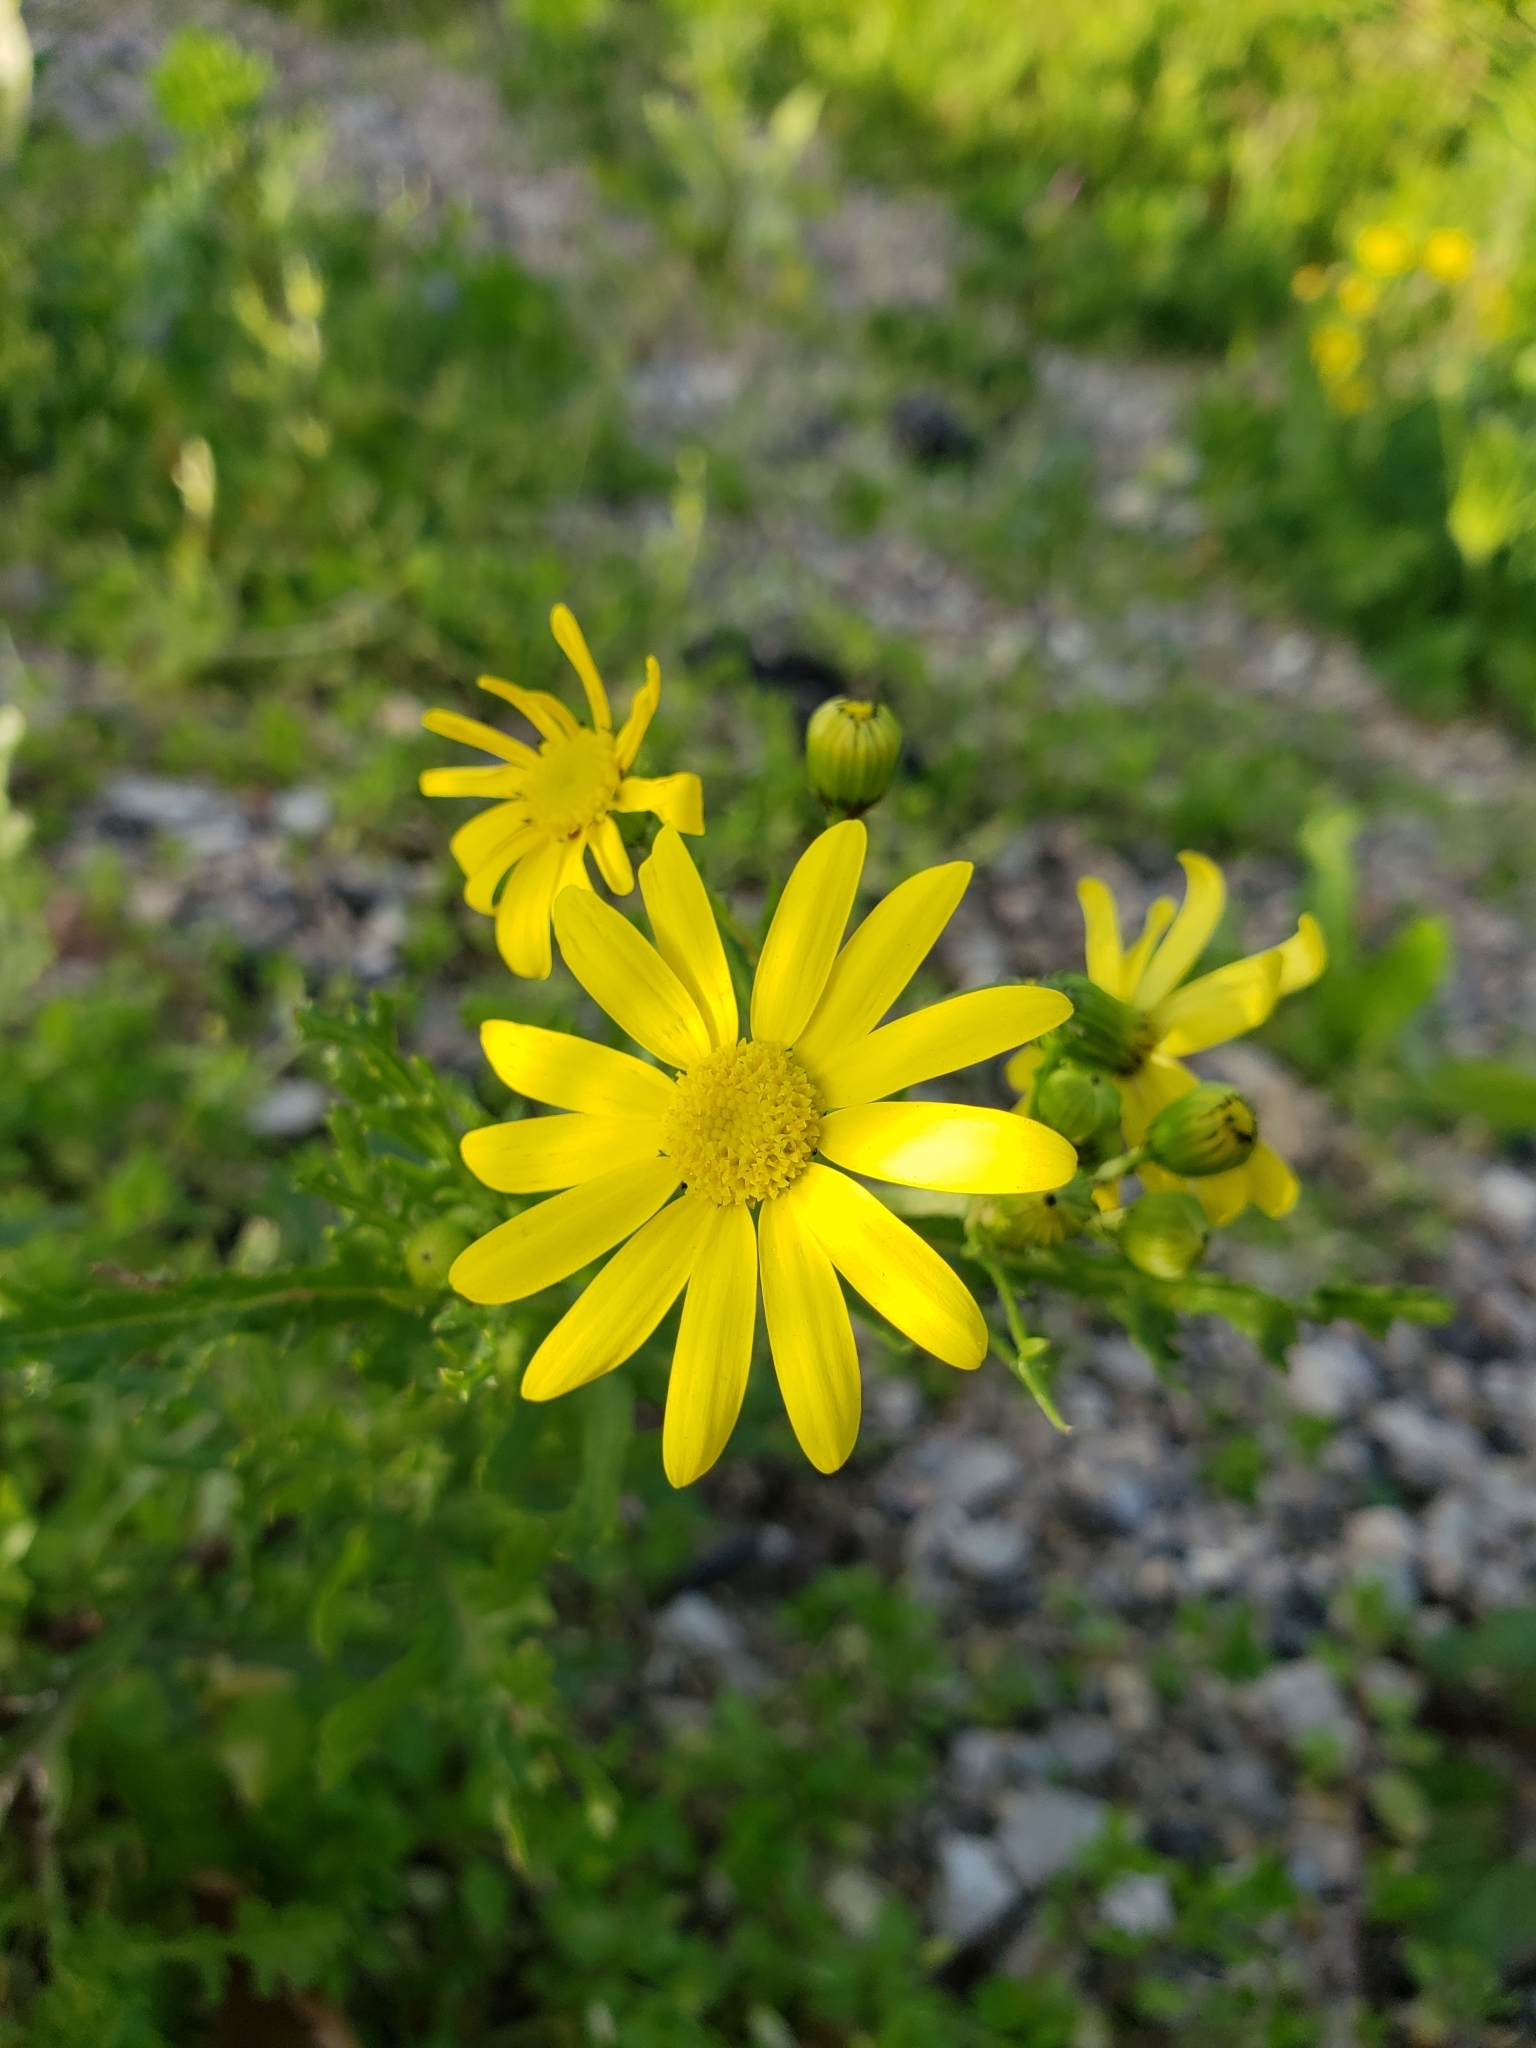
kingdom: Plantae
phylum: Tracheophyta
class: Magnoliopsida
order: Asterales
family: Asteraceae
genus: Senecio
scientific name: Senecio vernalis
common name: Eastern groundsel
